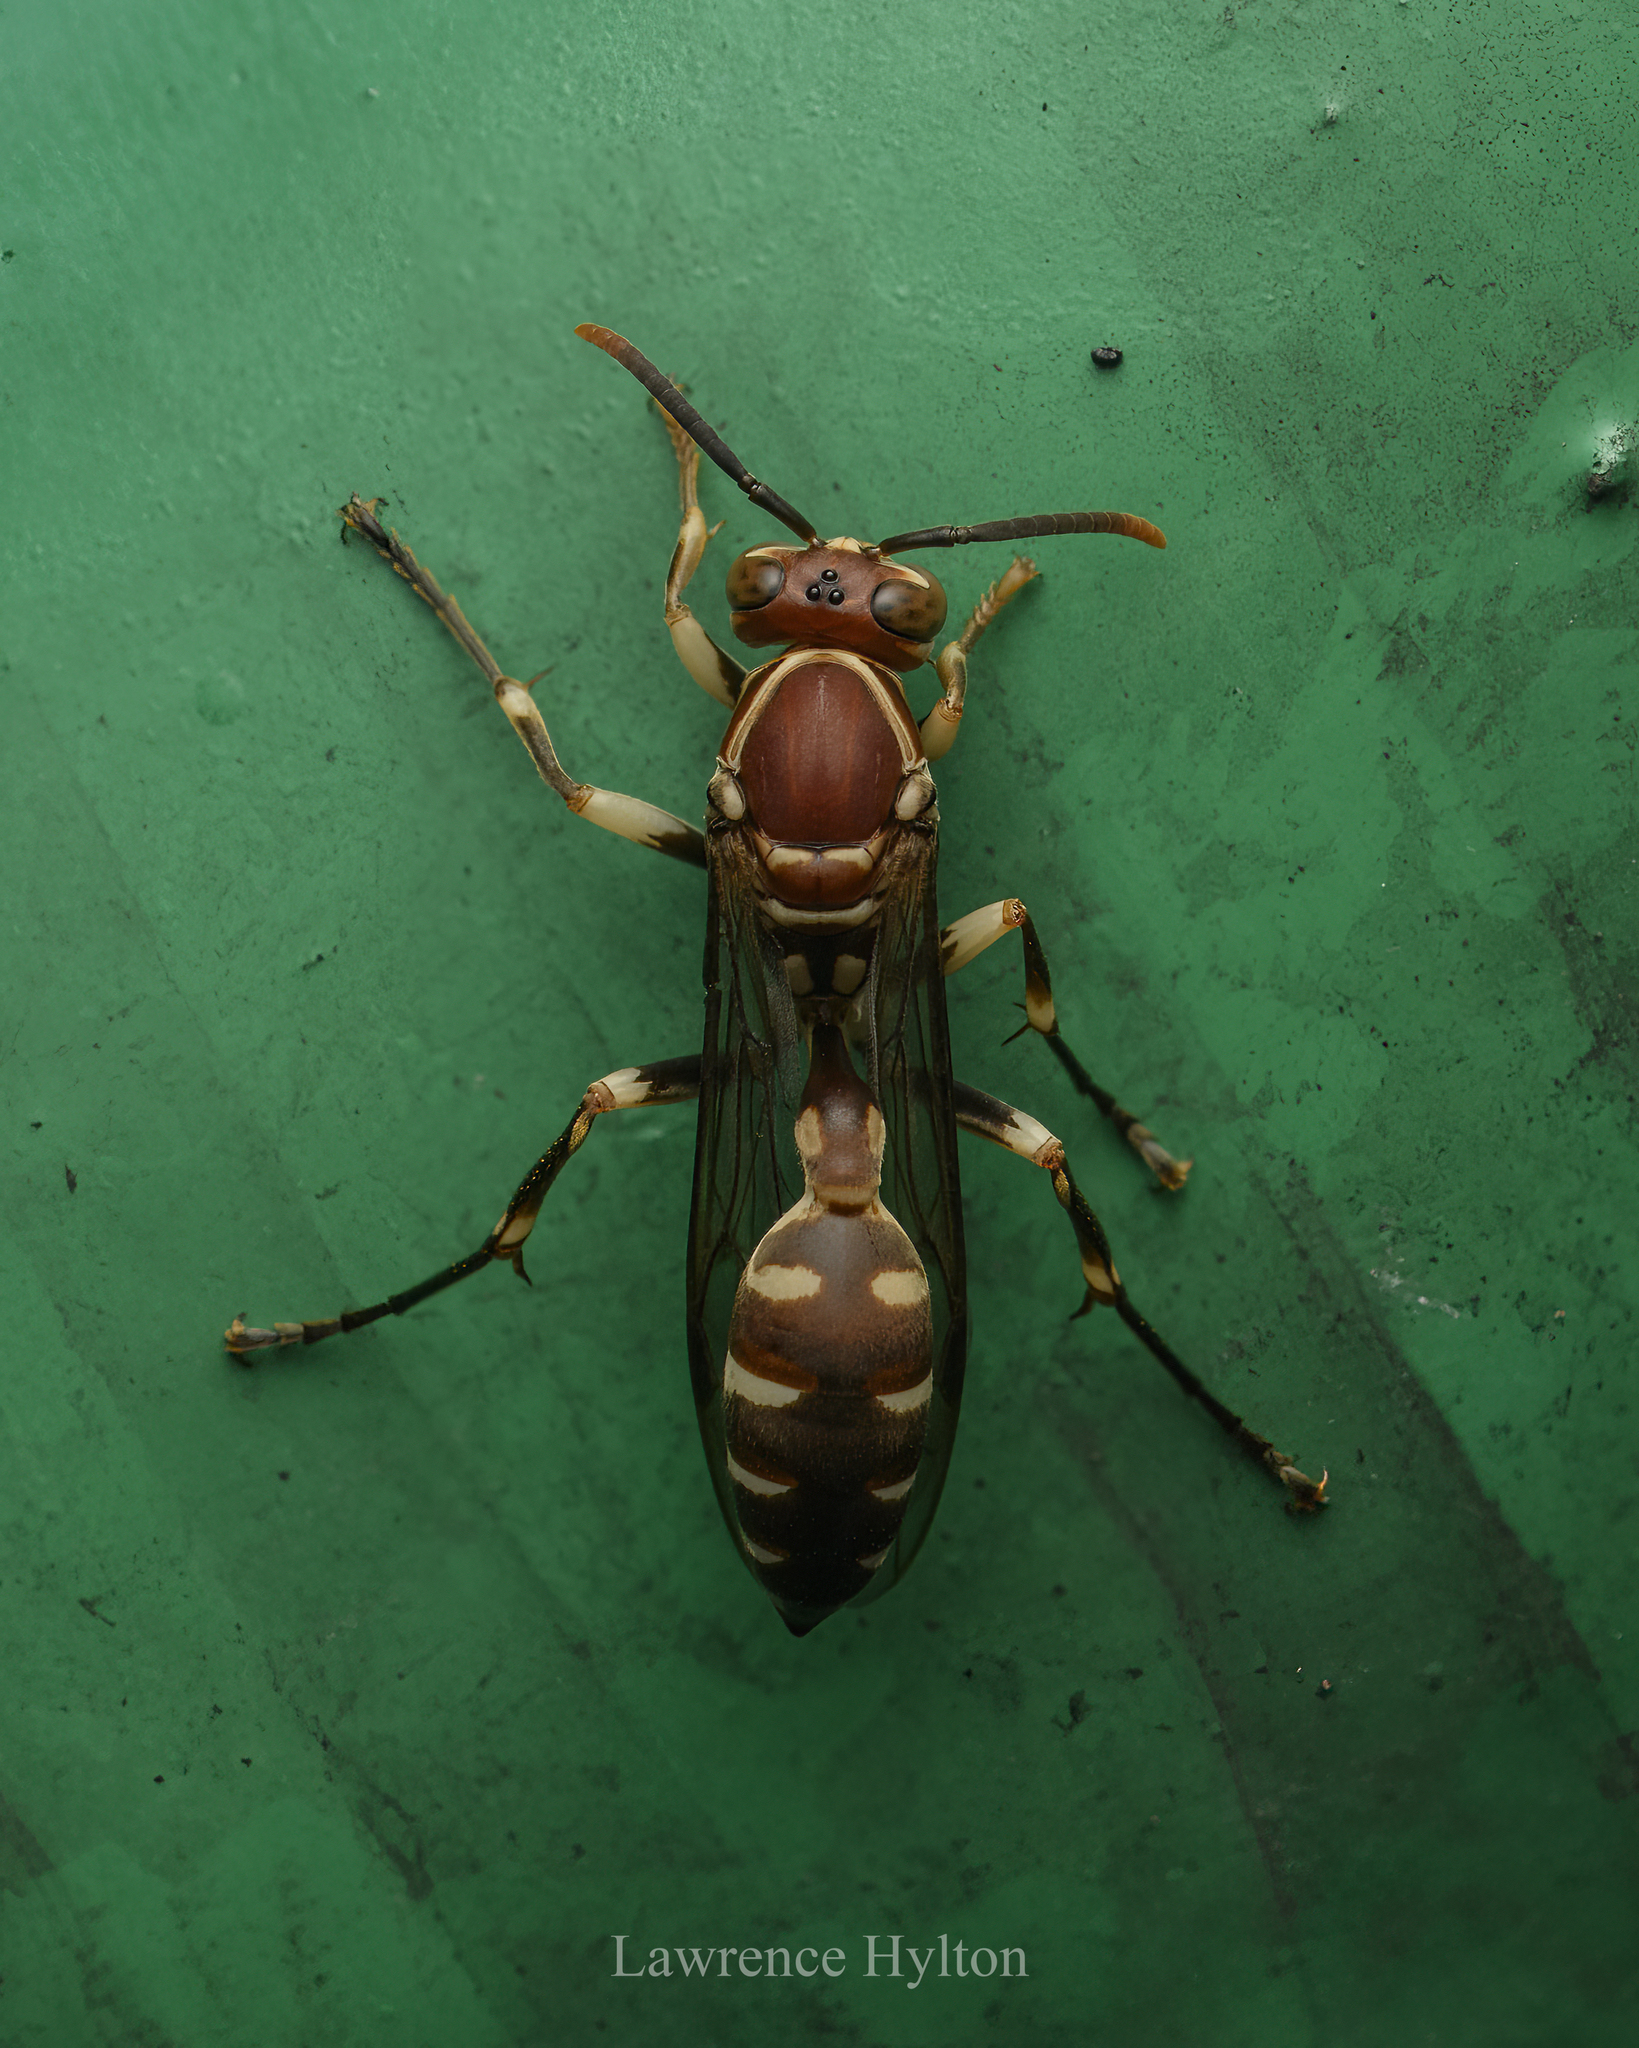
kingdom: Animalia
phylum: Arthropoda
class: Insecta
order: Hymenoptera
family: Vespidae
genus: Parapolybia
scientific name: Parapolybia nodosa
